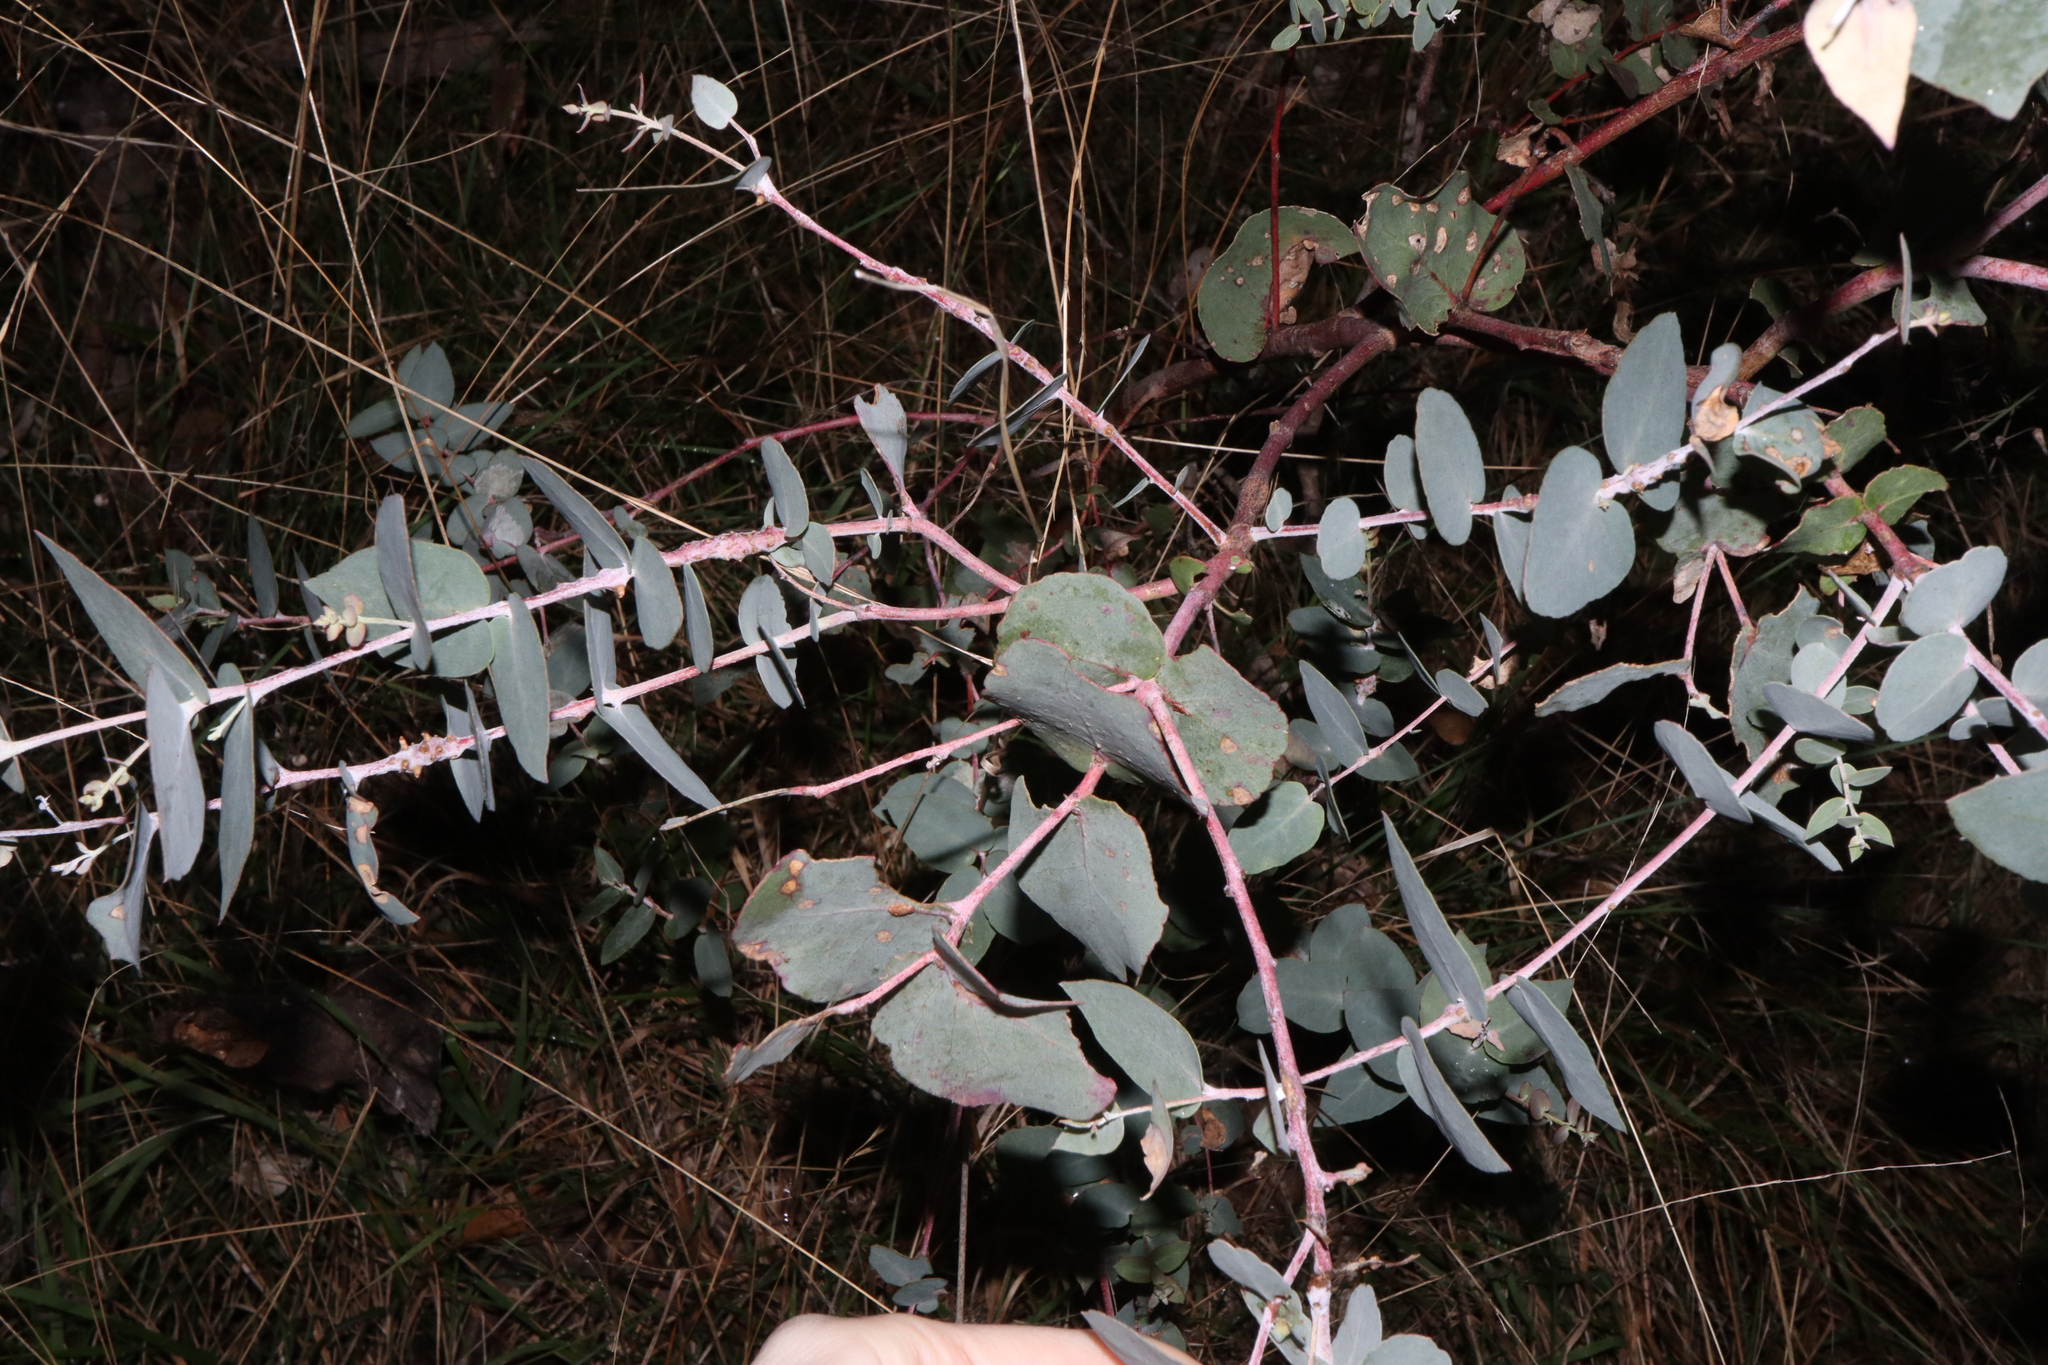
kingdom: Plantae
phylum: Tracheophyta
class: Magnoliopsida
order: Myrtales
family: Myrtaceae
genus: Eucalyptus
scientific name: Eucalyptus bridgesiana
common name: Applebox
